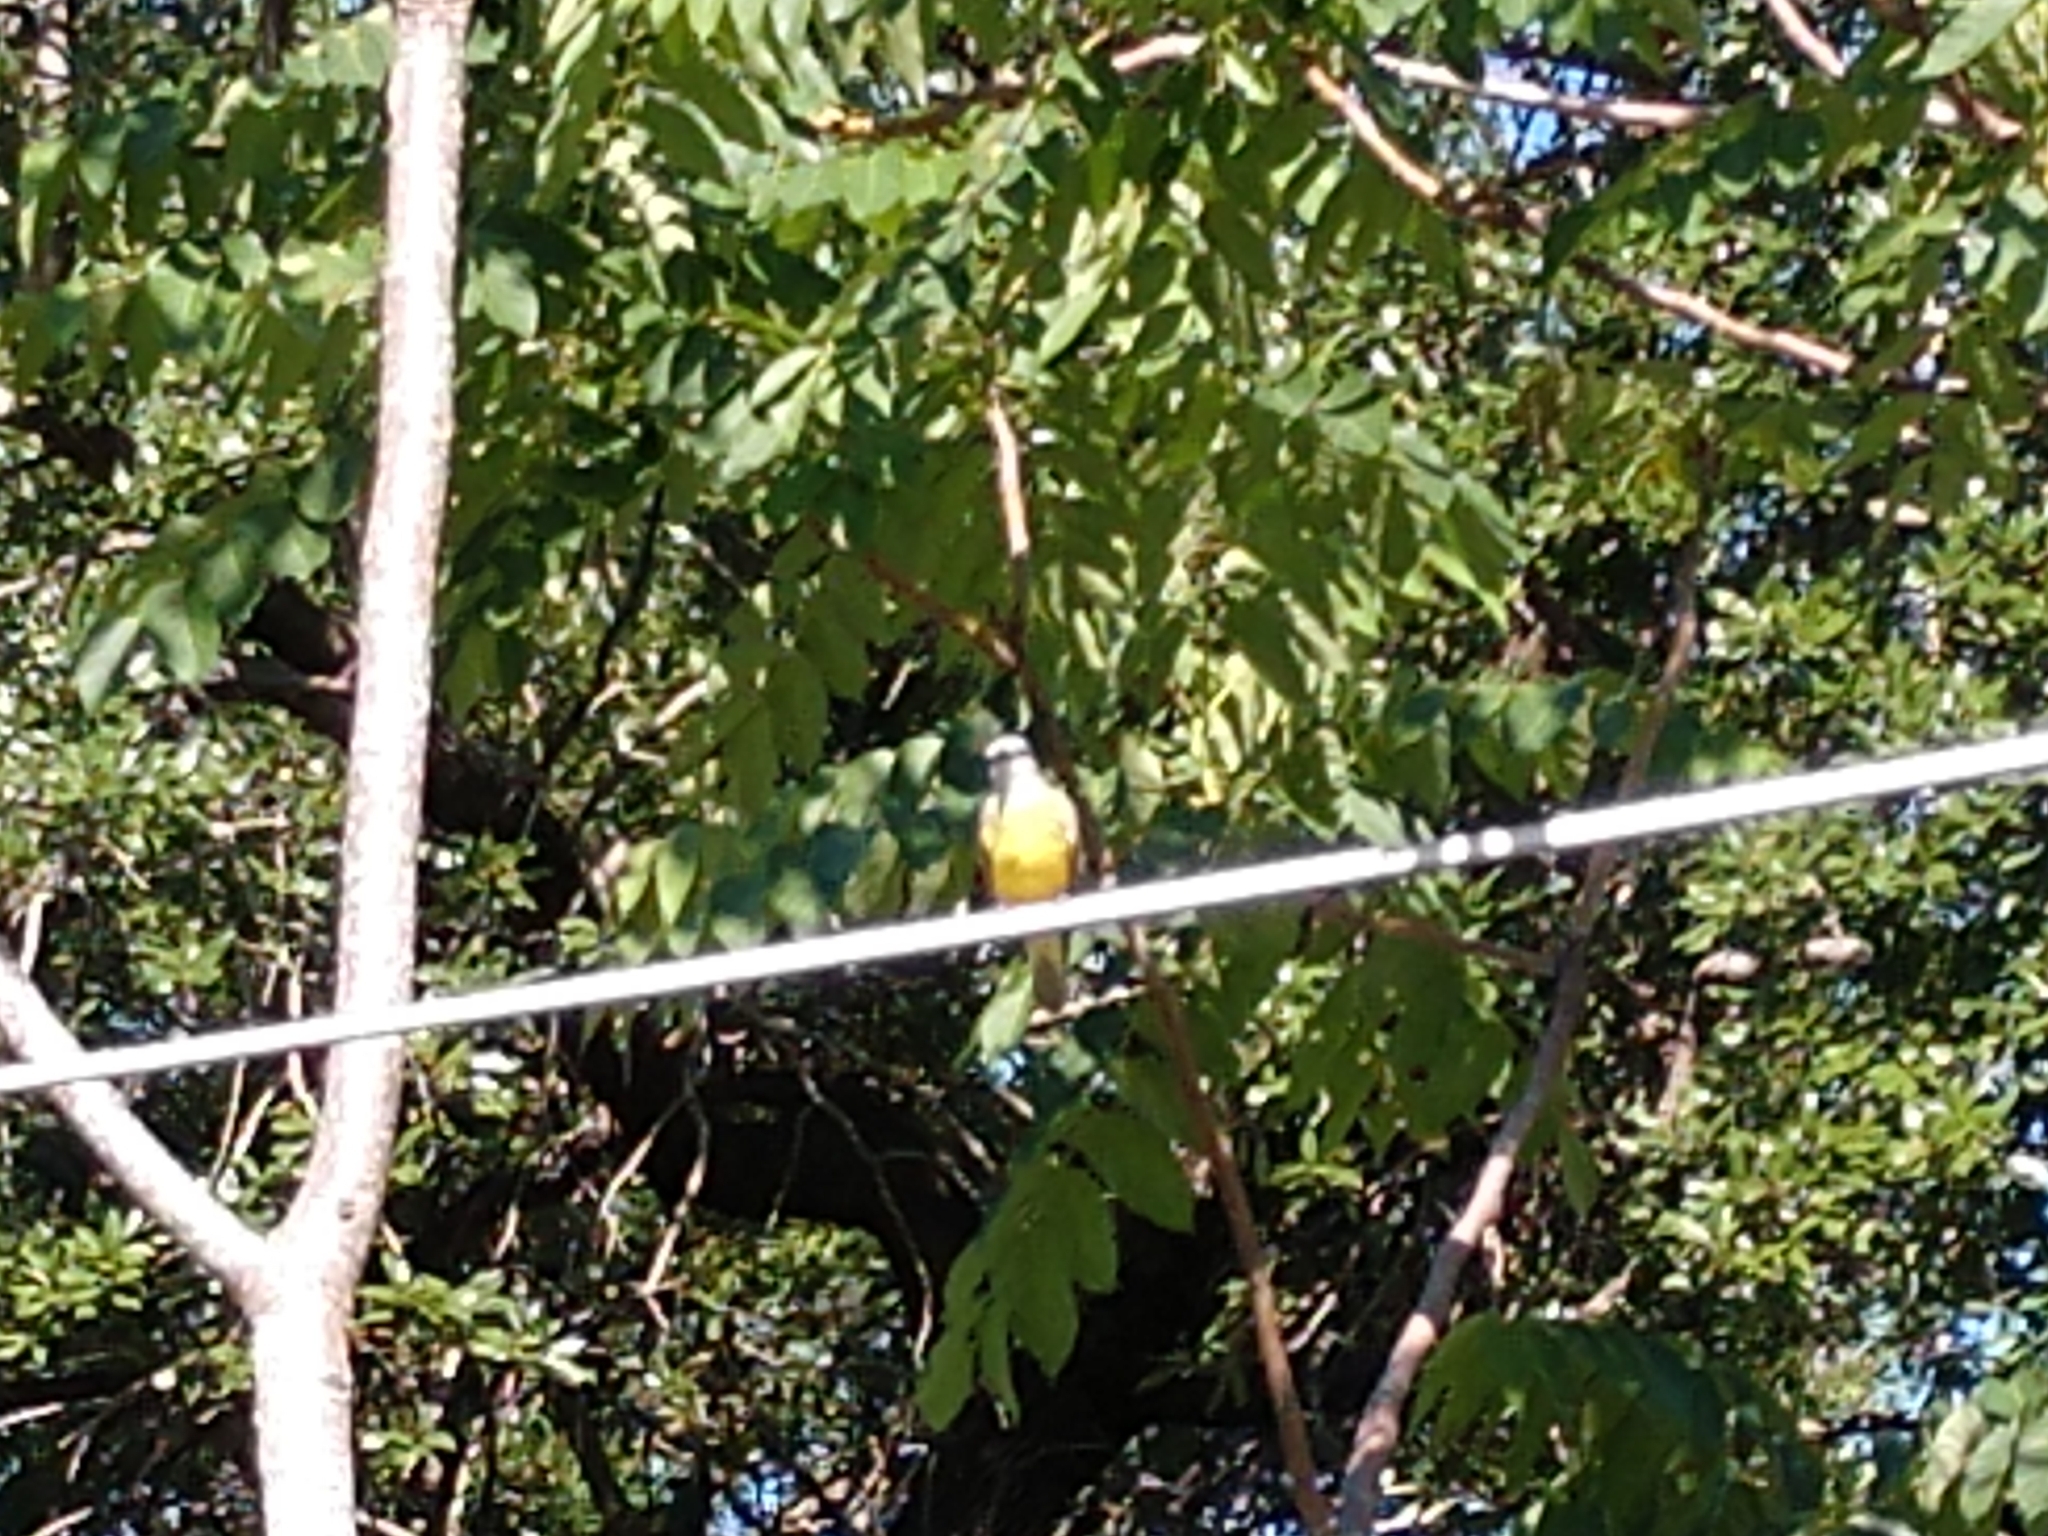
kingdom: Animalia
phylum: Chordata
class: Aves
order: Passeriformes
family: Tyrannidae
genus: Tyrannus
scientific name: Tyrannus verticalis
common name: Western kingbird
